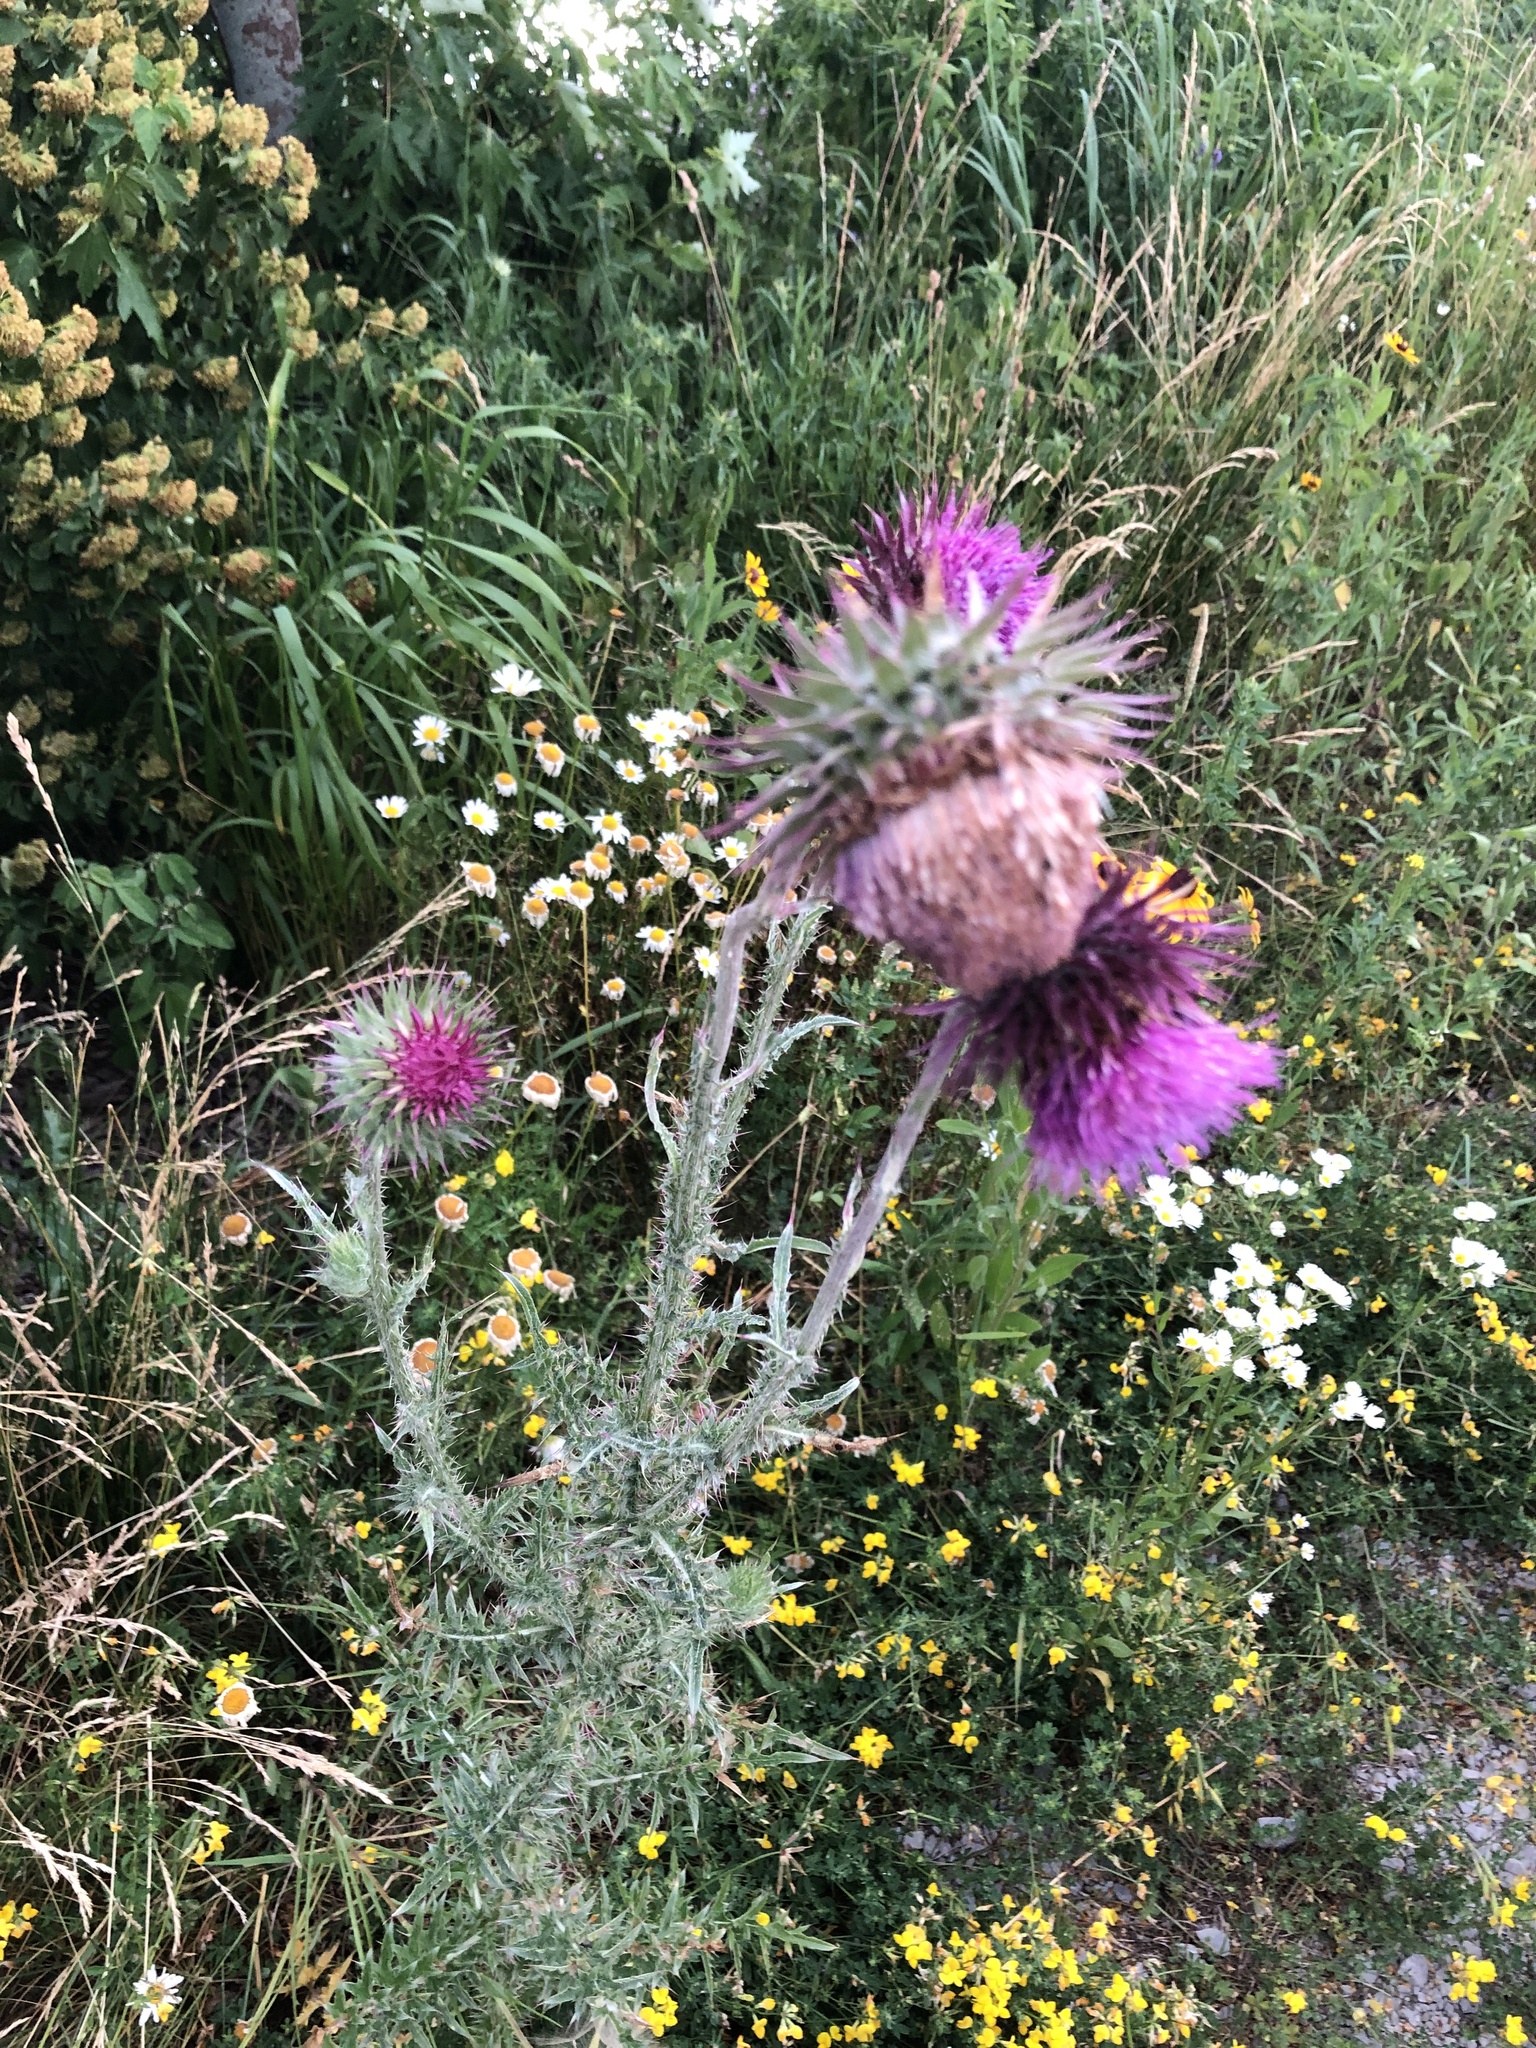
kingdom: Plantae
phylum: Tracheophyta
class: Magnoliopsida
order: Asterales
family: Asteraceae
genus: Carduus
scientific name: Carduus nutans
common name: Musk thistle
